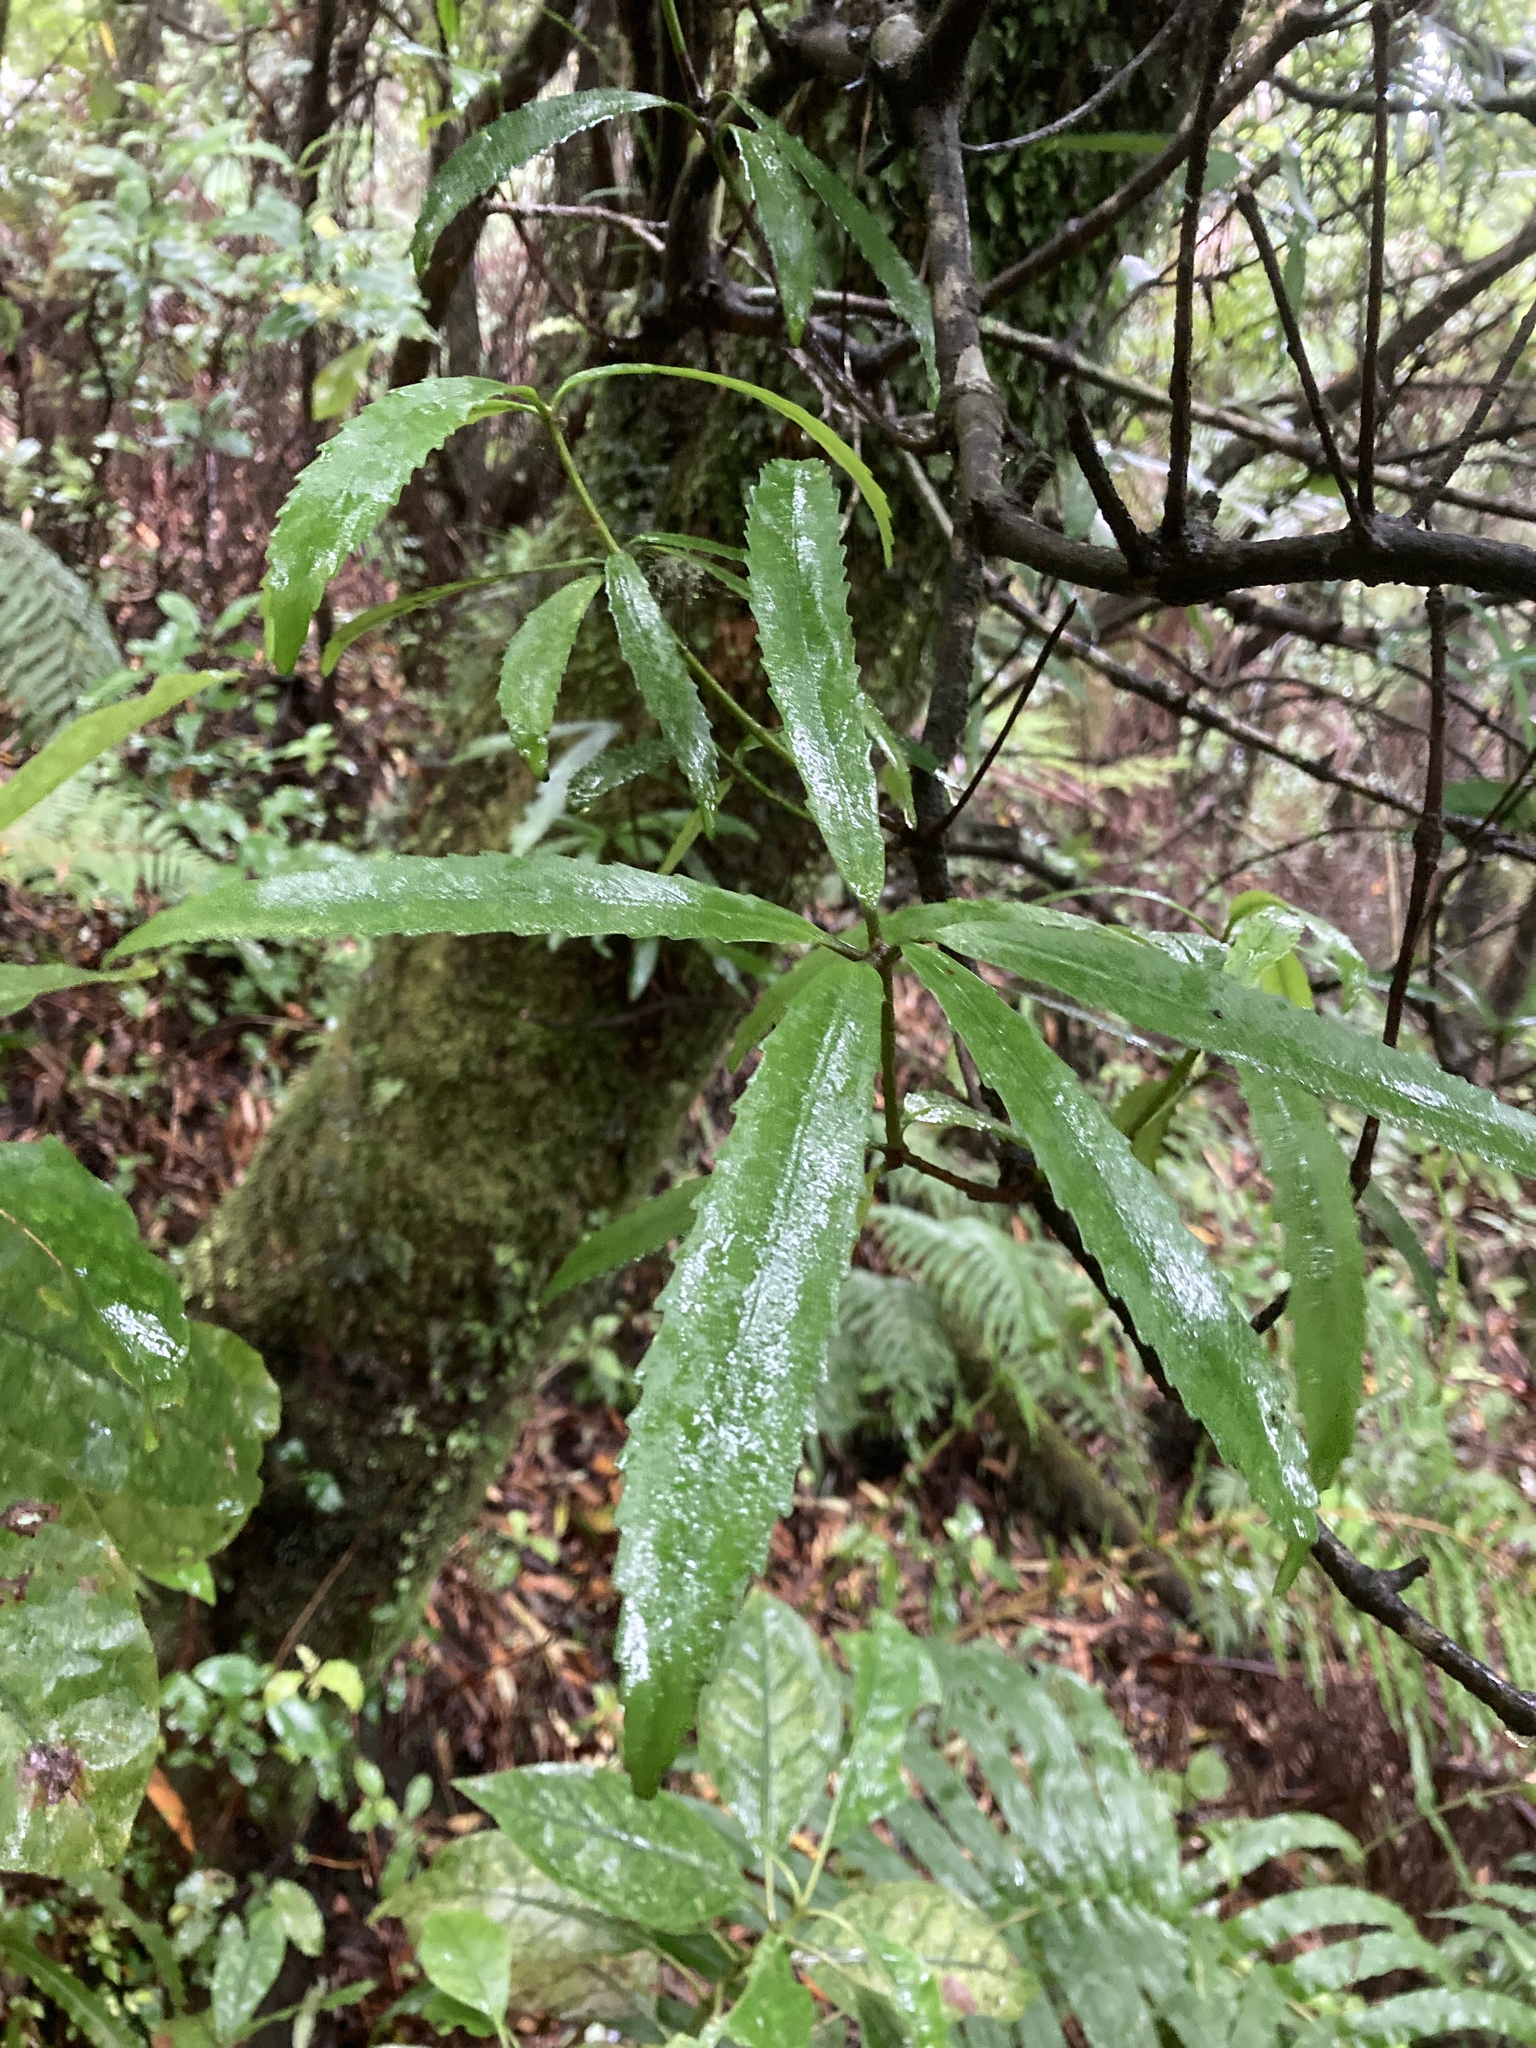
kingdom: Plantae
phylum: Tracheophyta
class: Magnoliopsida
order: Crossosomatales
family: Ixerbaceae
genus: Ixerba
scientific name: Ixerba brexioides
